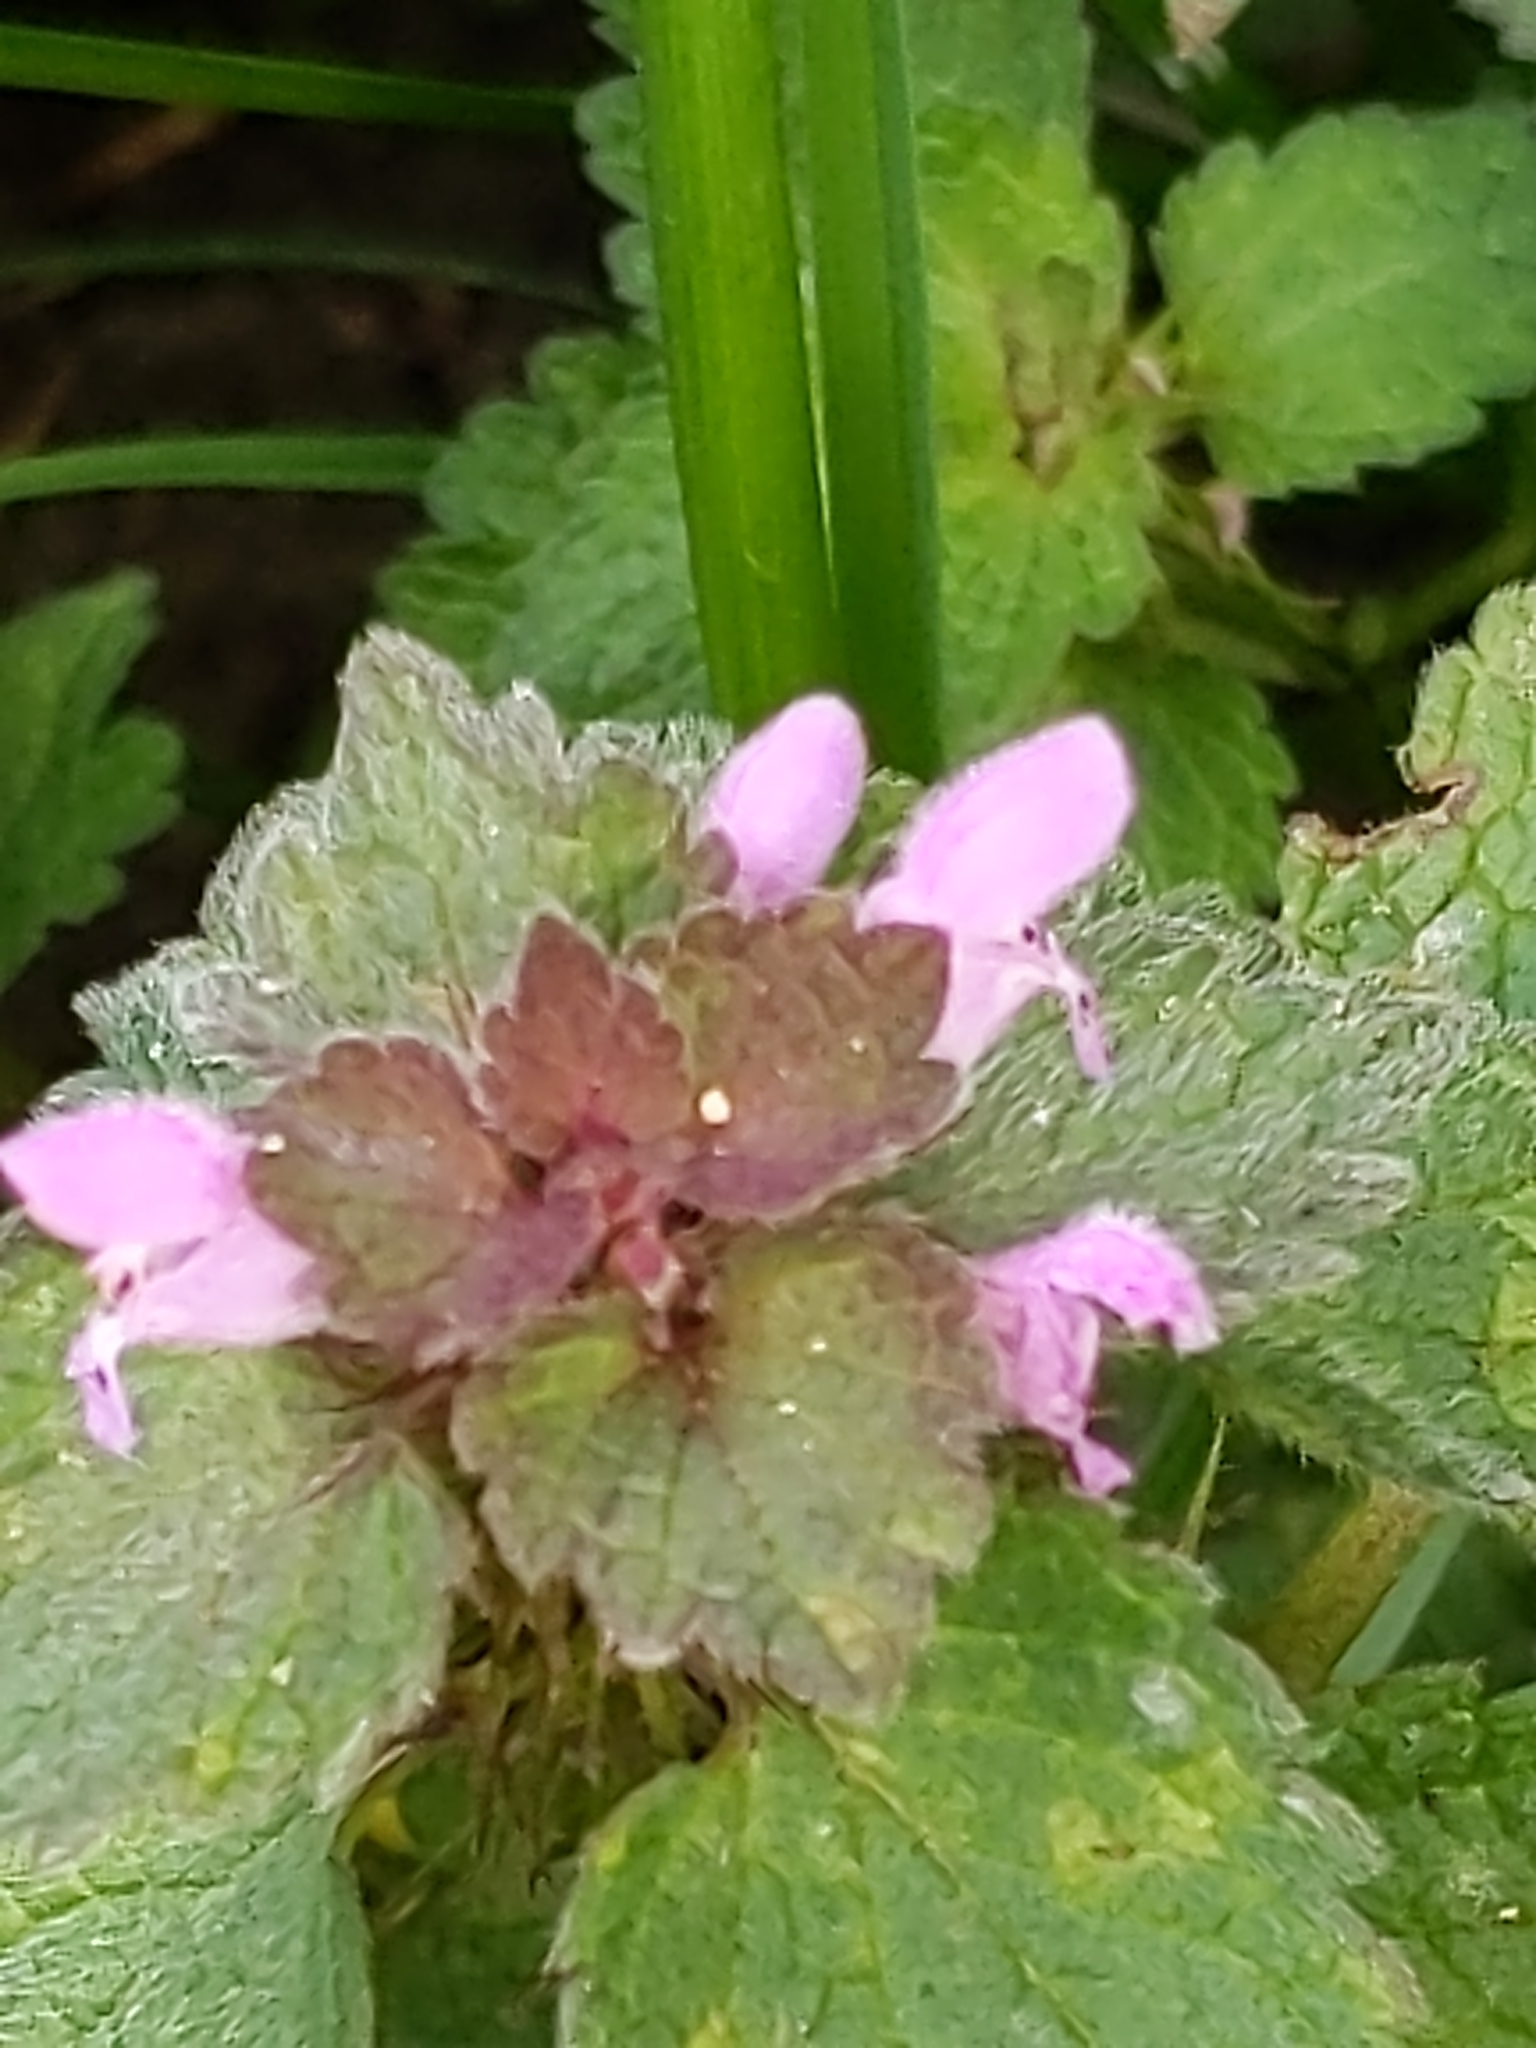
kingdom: Plantae
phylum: Tracheophyta
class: Magnoliopsida
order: Lamiales
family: Lamiaceae
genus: Lamium
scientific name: Lamium purpureum
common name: Red dead-nettle
